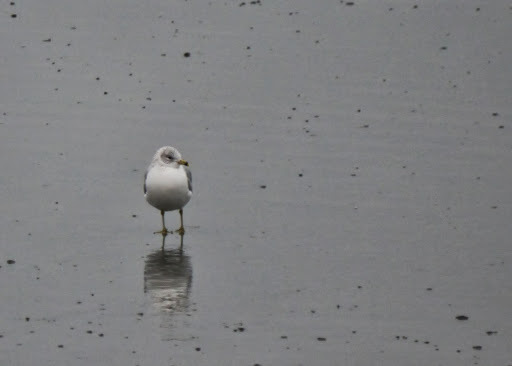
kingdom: Animalia
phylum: Chordata
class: Aves
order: Charadriiformes
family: Laridae
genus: Larus
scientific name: Larus delawarensis
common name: Ring-billed gull
